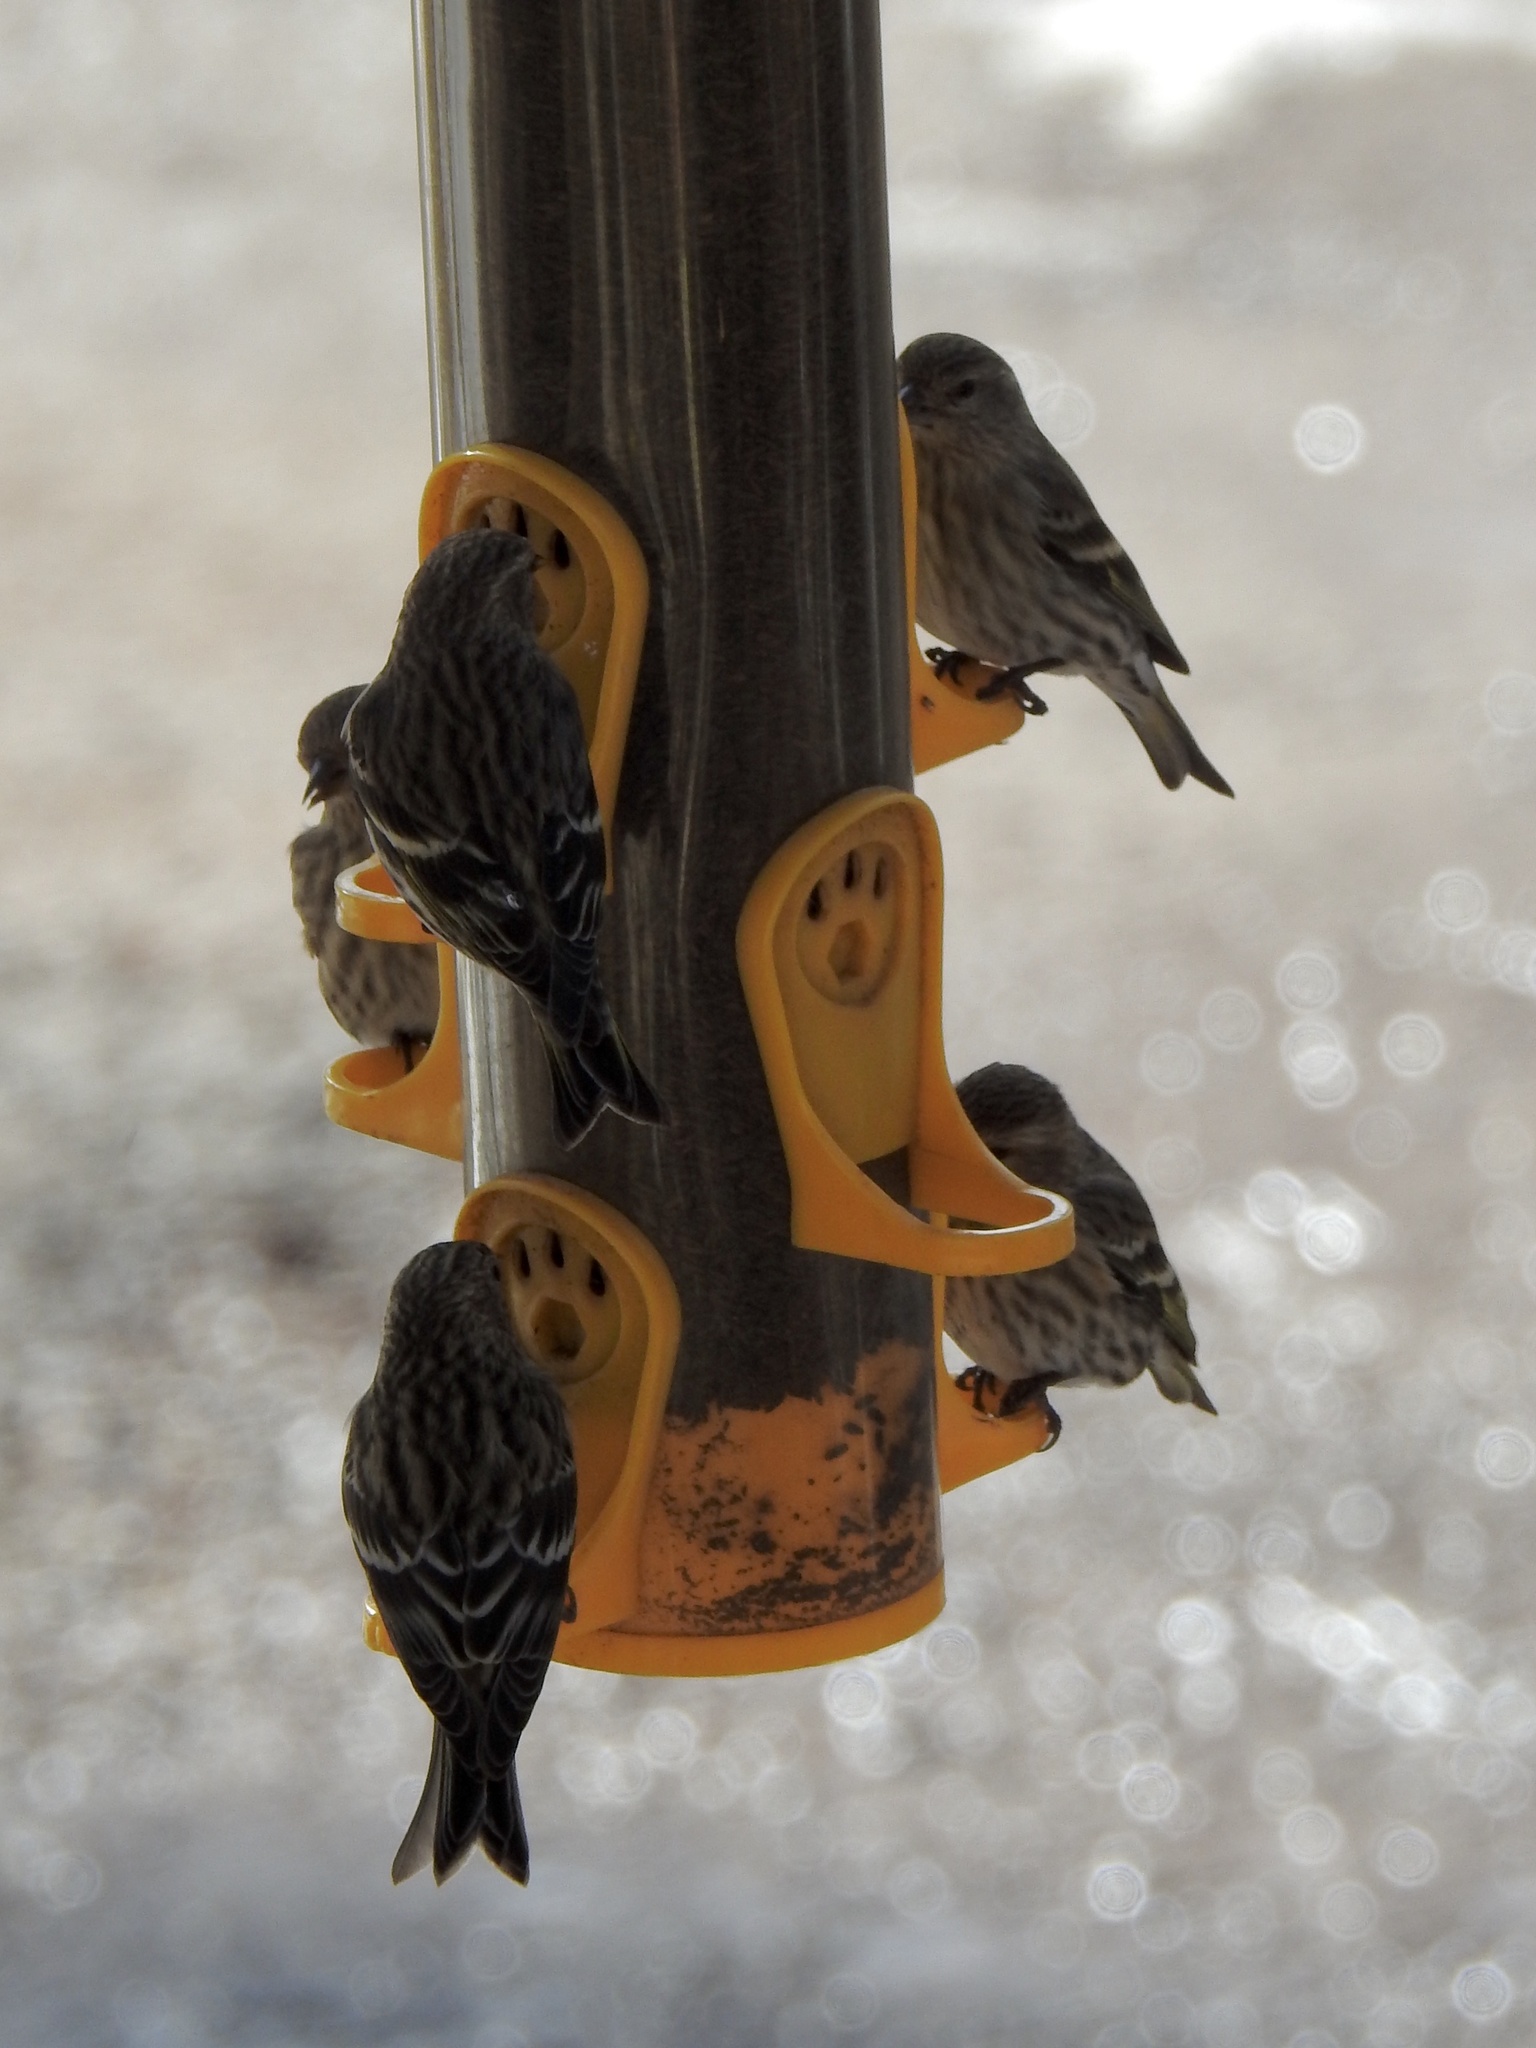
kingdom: Animalia
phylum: Chordata
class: Aves
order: Passeriformes
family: Fringillidae
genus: Spinus
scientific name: Spinus pinus
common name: Pine siskin
